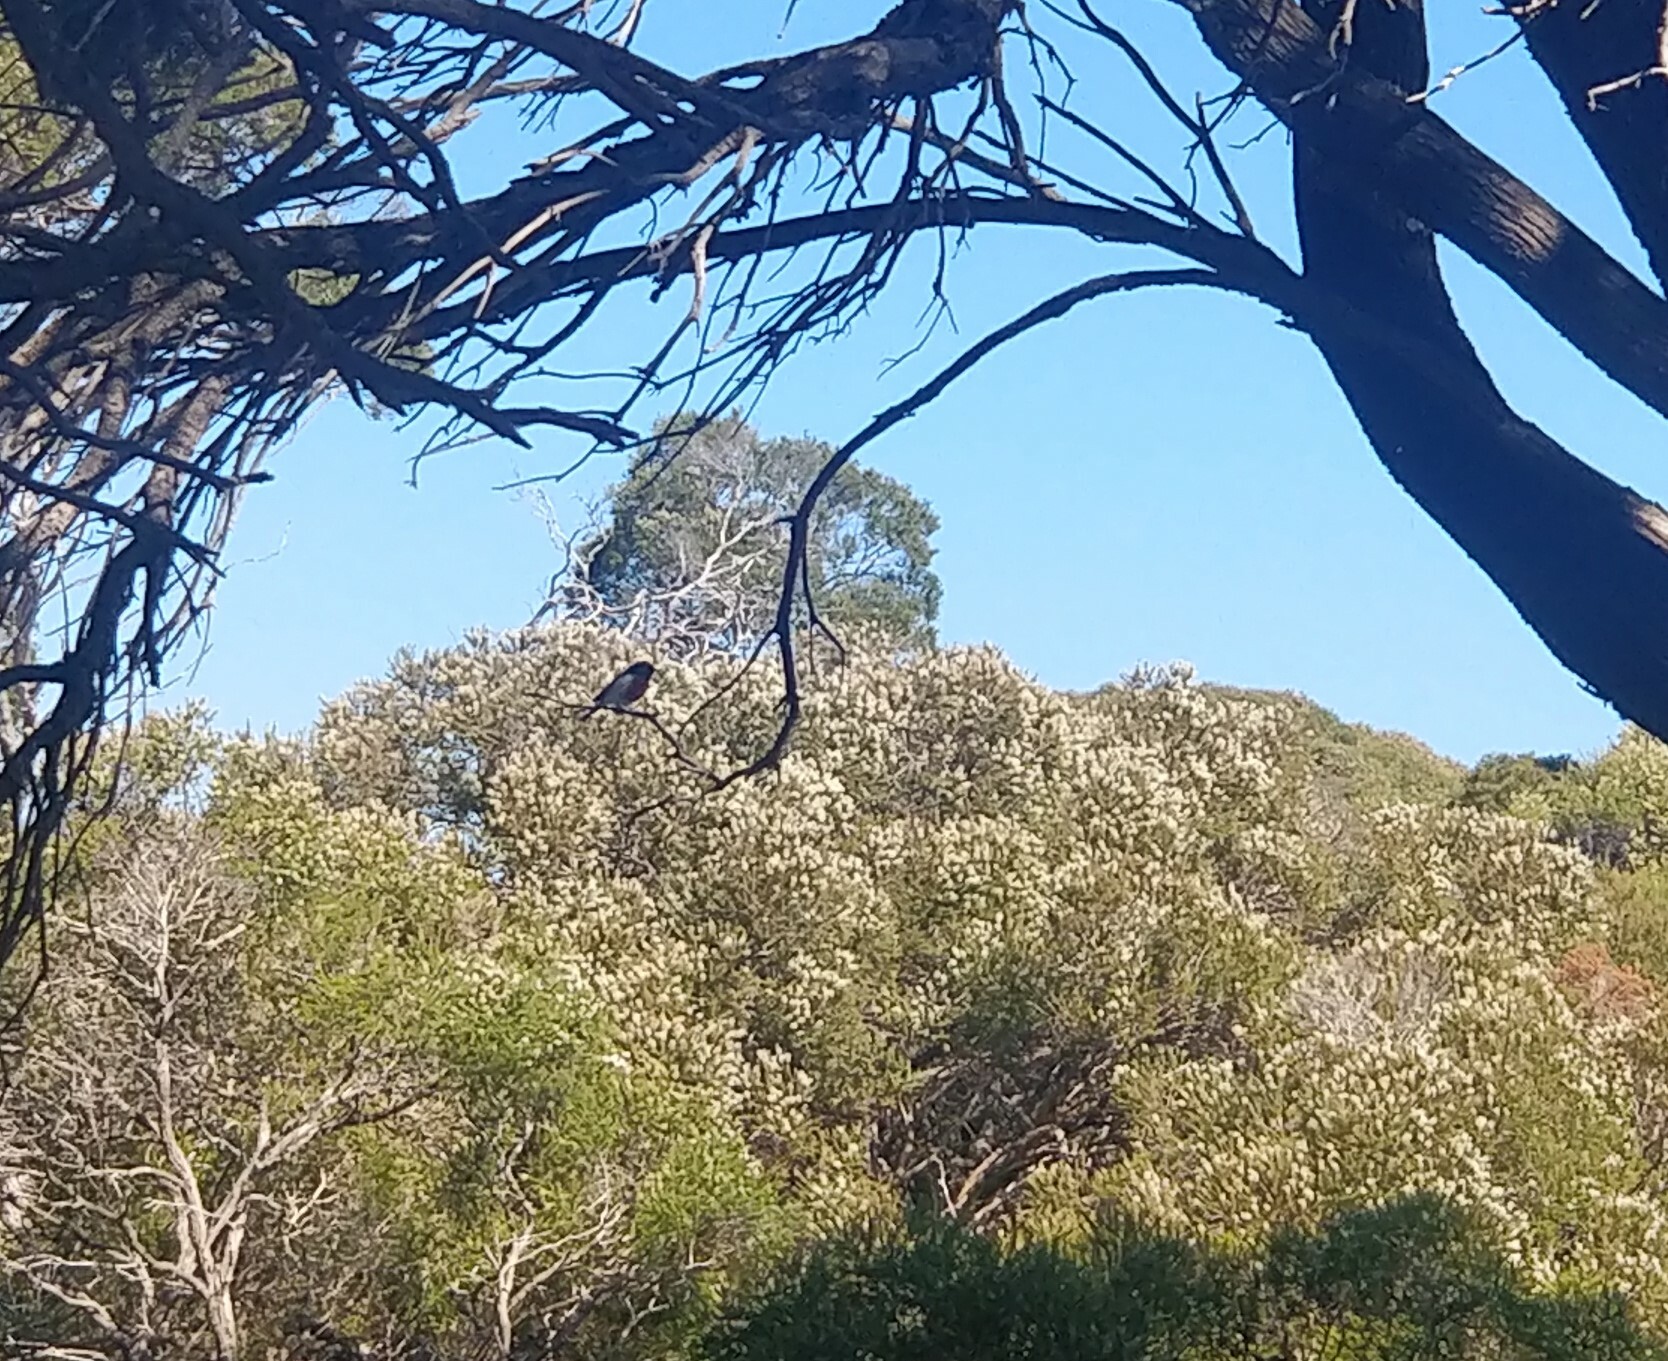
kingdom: Animalia
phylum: Chordata
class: Aves
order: Passeriformes
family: Petroicidae
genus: Petroica
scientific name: Petroica goodenovii
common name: Red-capped robin
